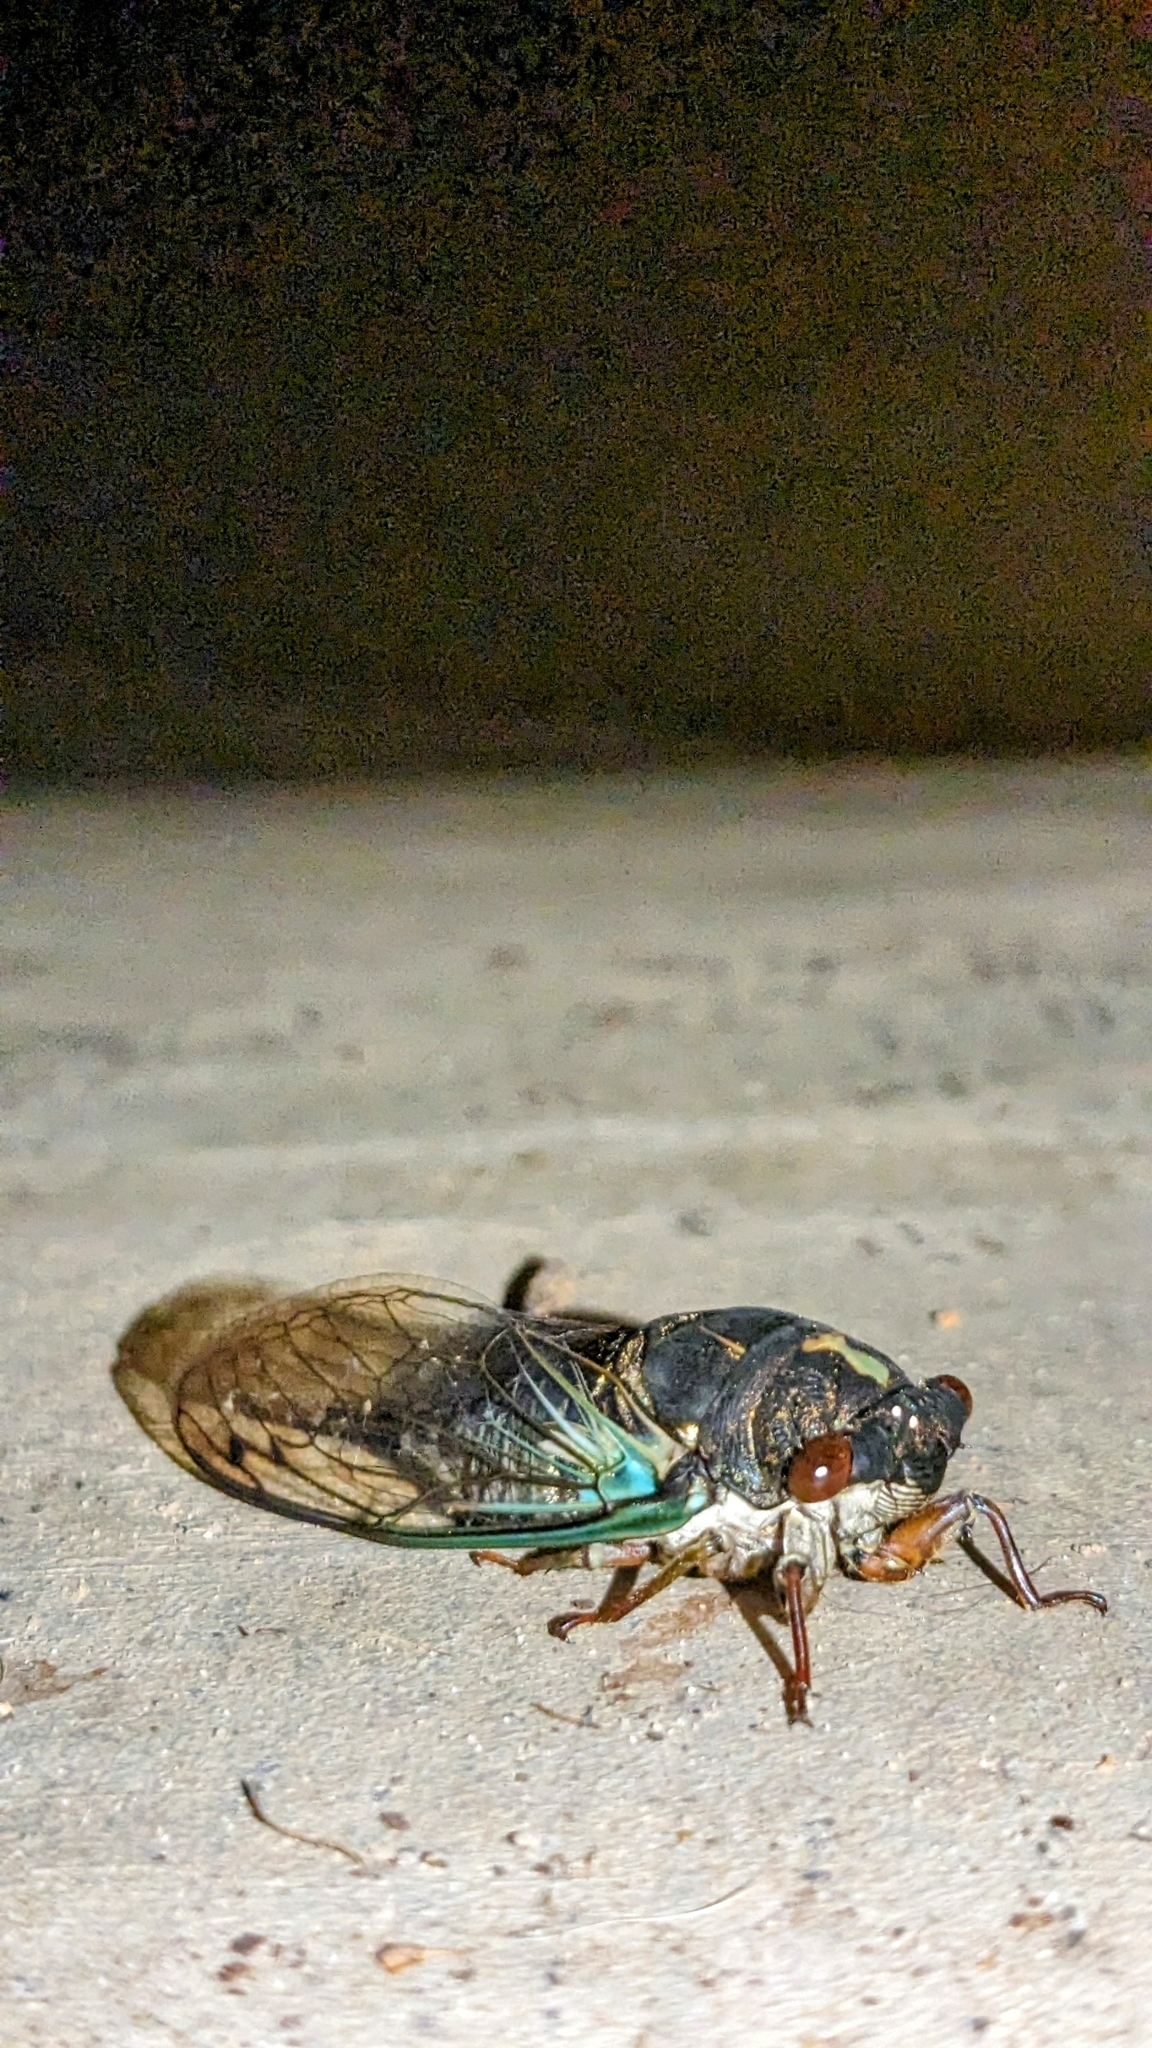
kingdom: Animalia
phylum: Arthropoda
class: Insecta
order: Hemiptera
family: Cicadidae
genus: Neotibicen
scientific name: Neotibicen lyricen
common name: Lyric cicada
